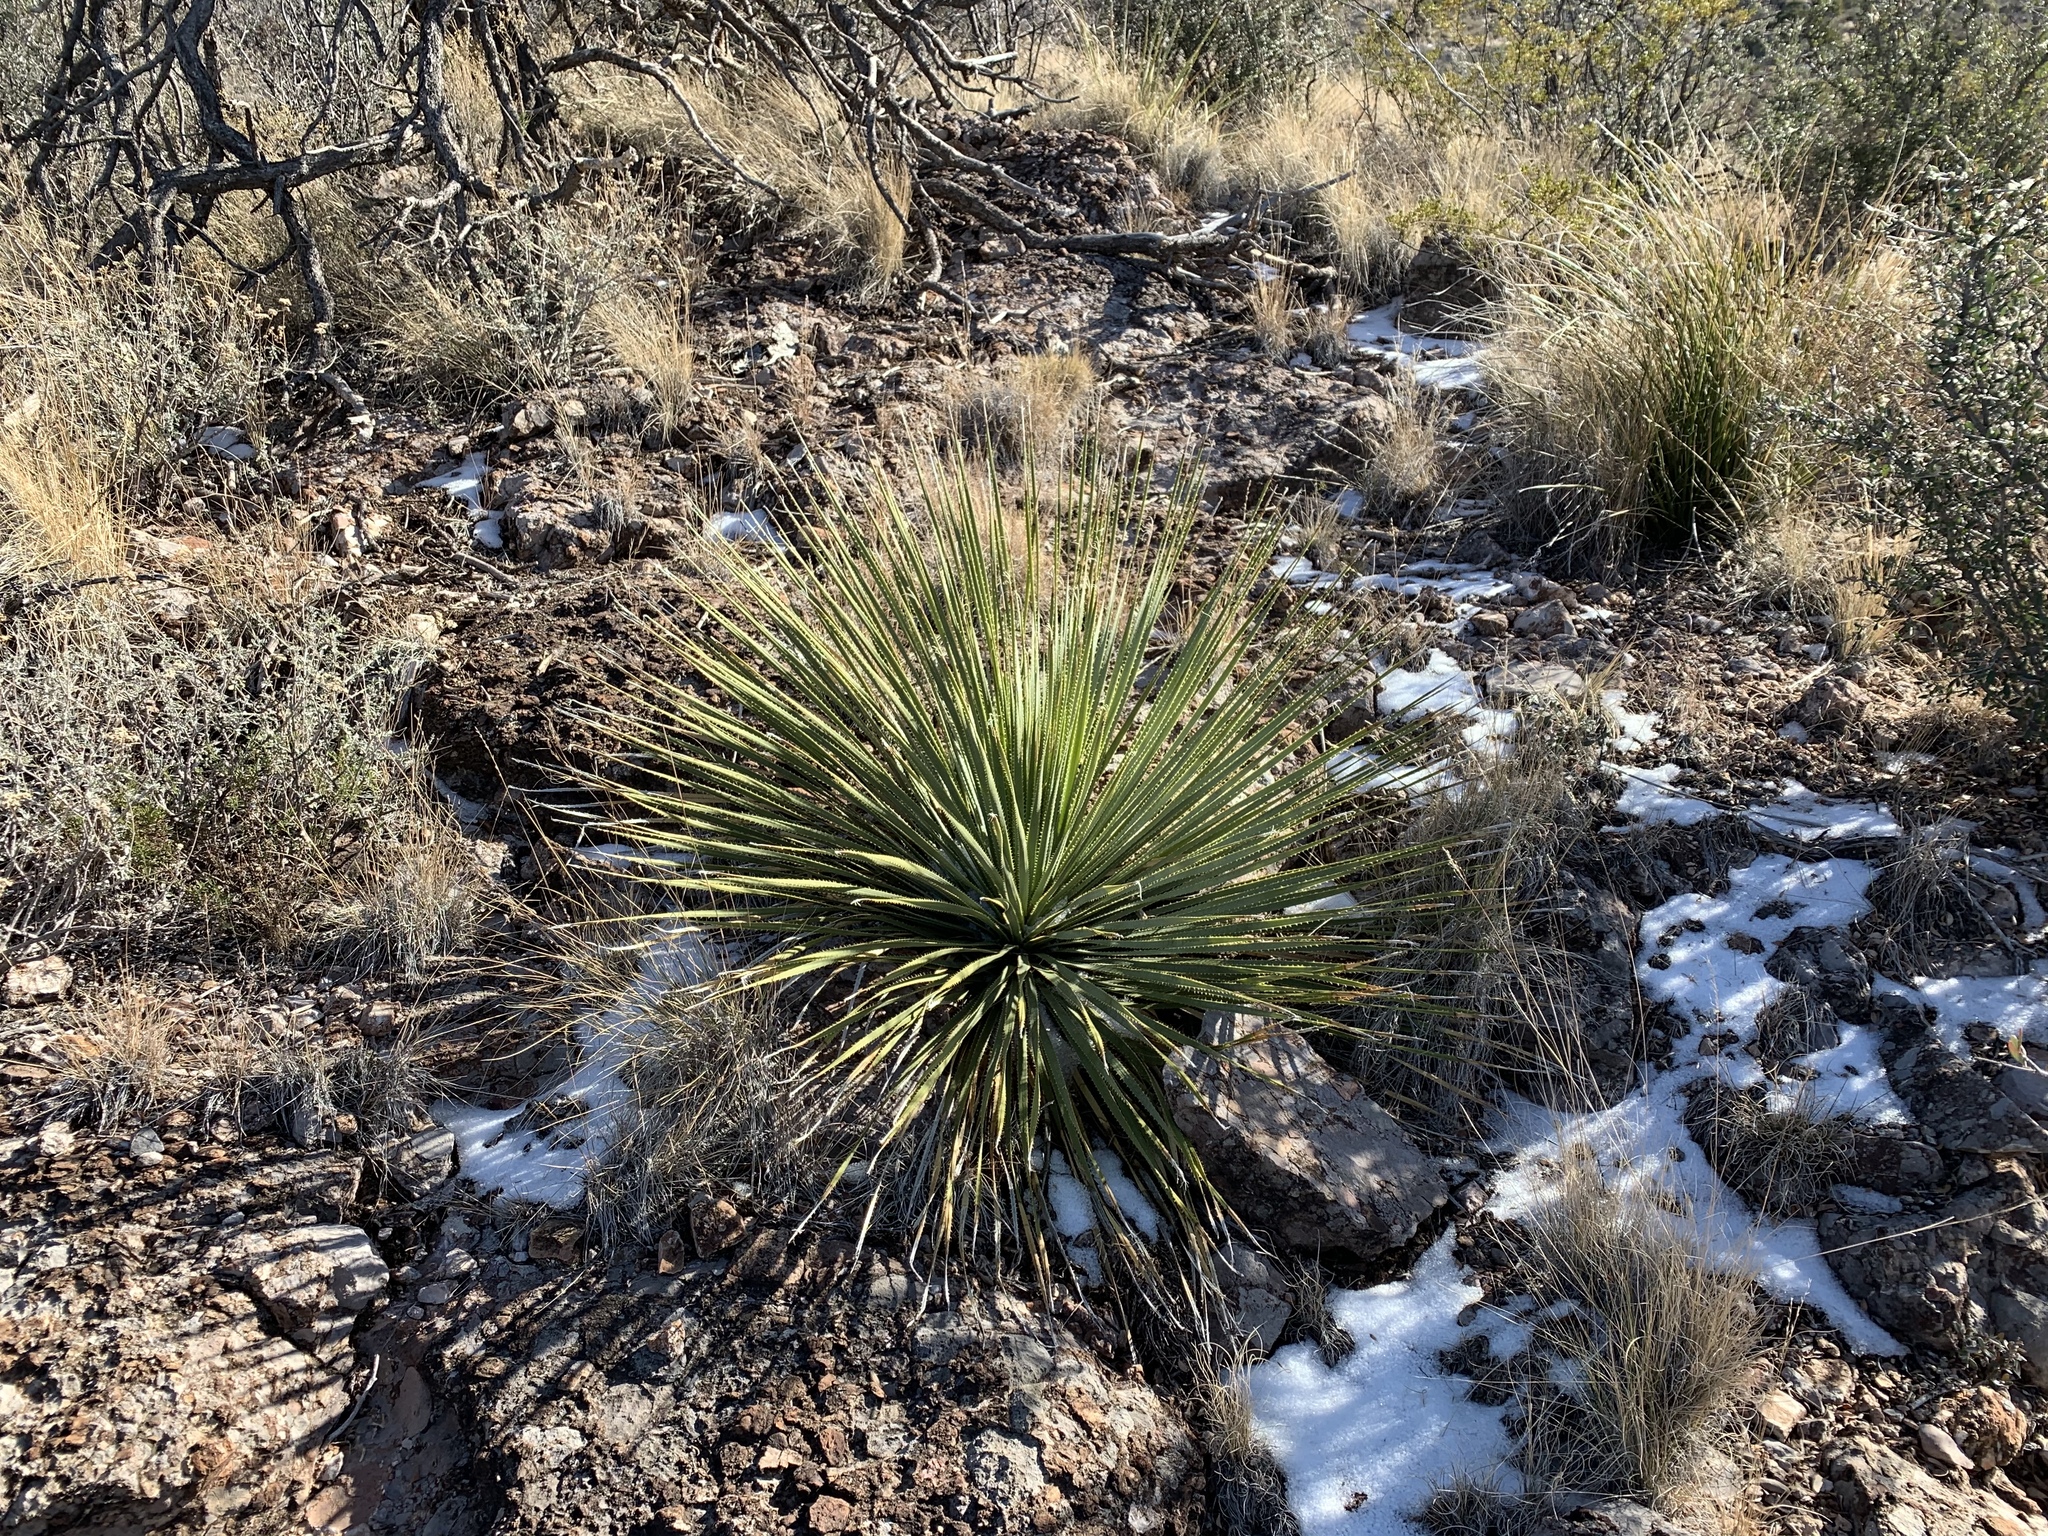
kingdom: Plantae
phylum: Tracheophyta
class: Liliopsida
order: Asparagales
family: Asparagaceae
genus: Dasylirion
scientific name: Dasylirion wheeleri
